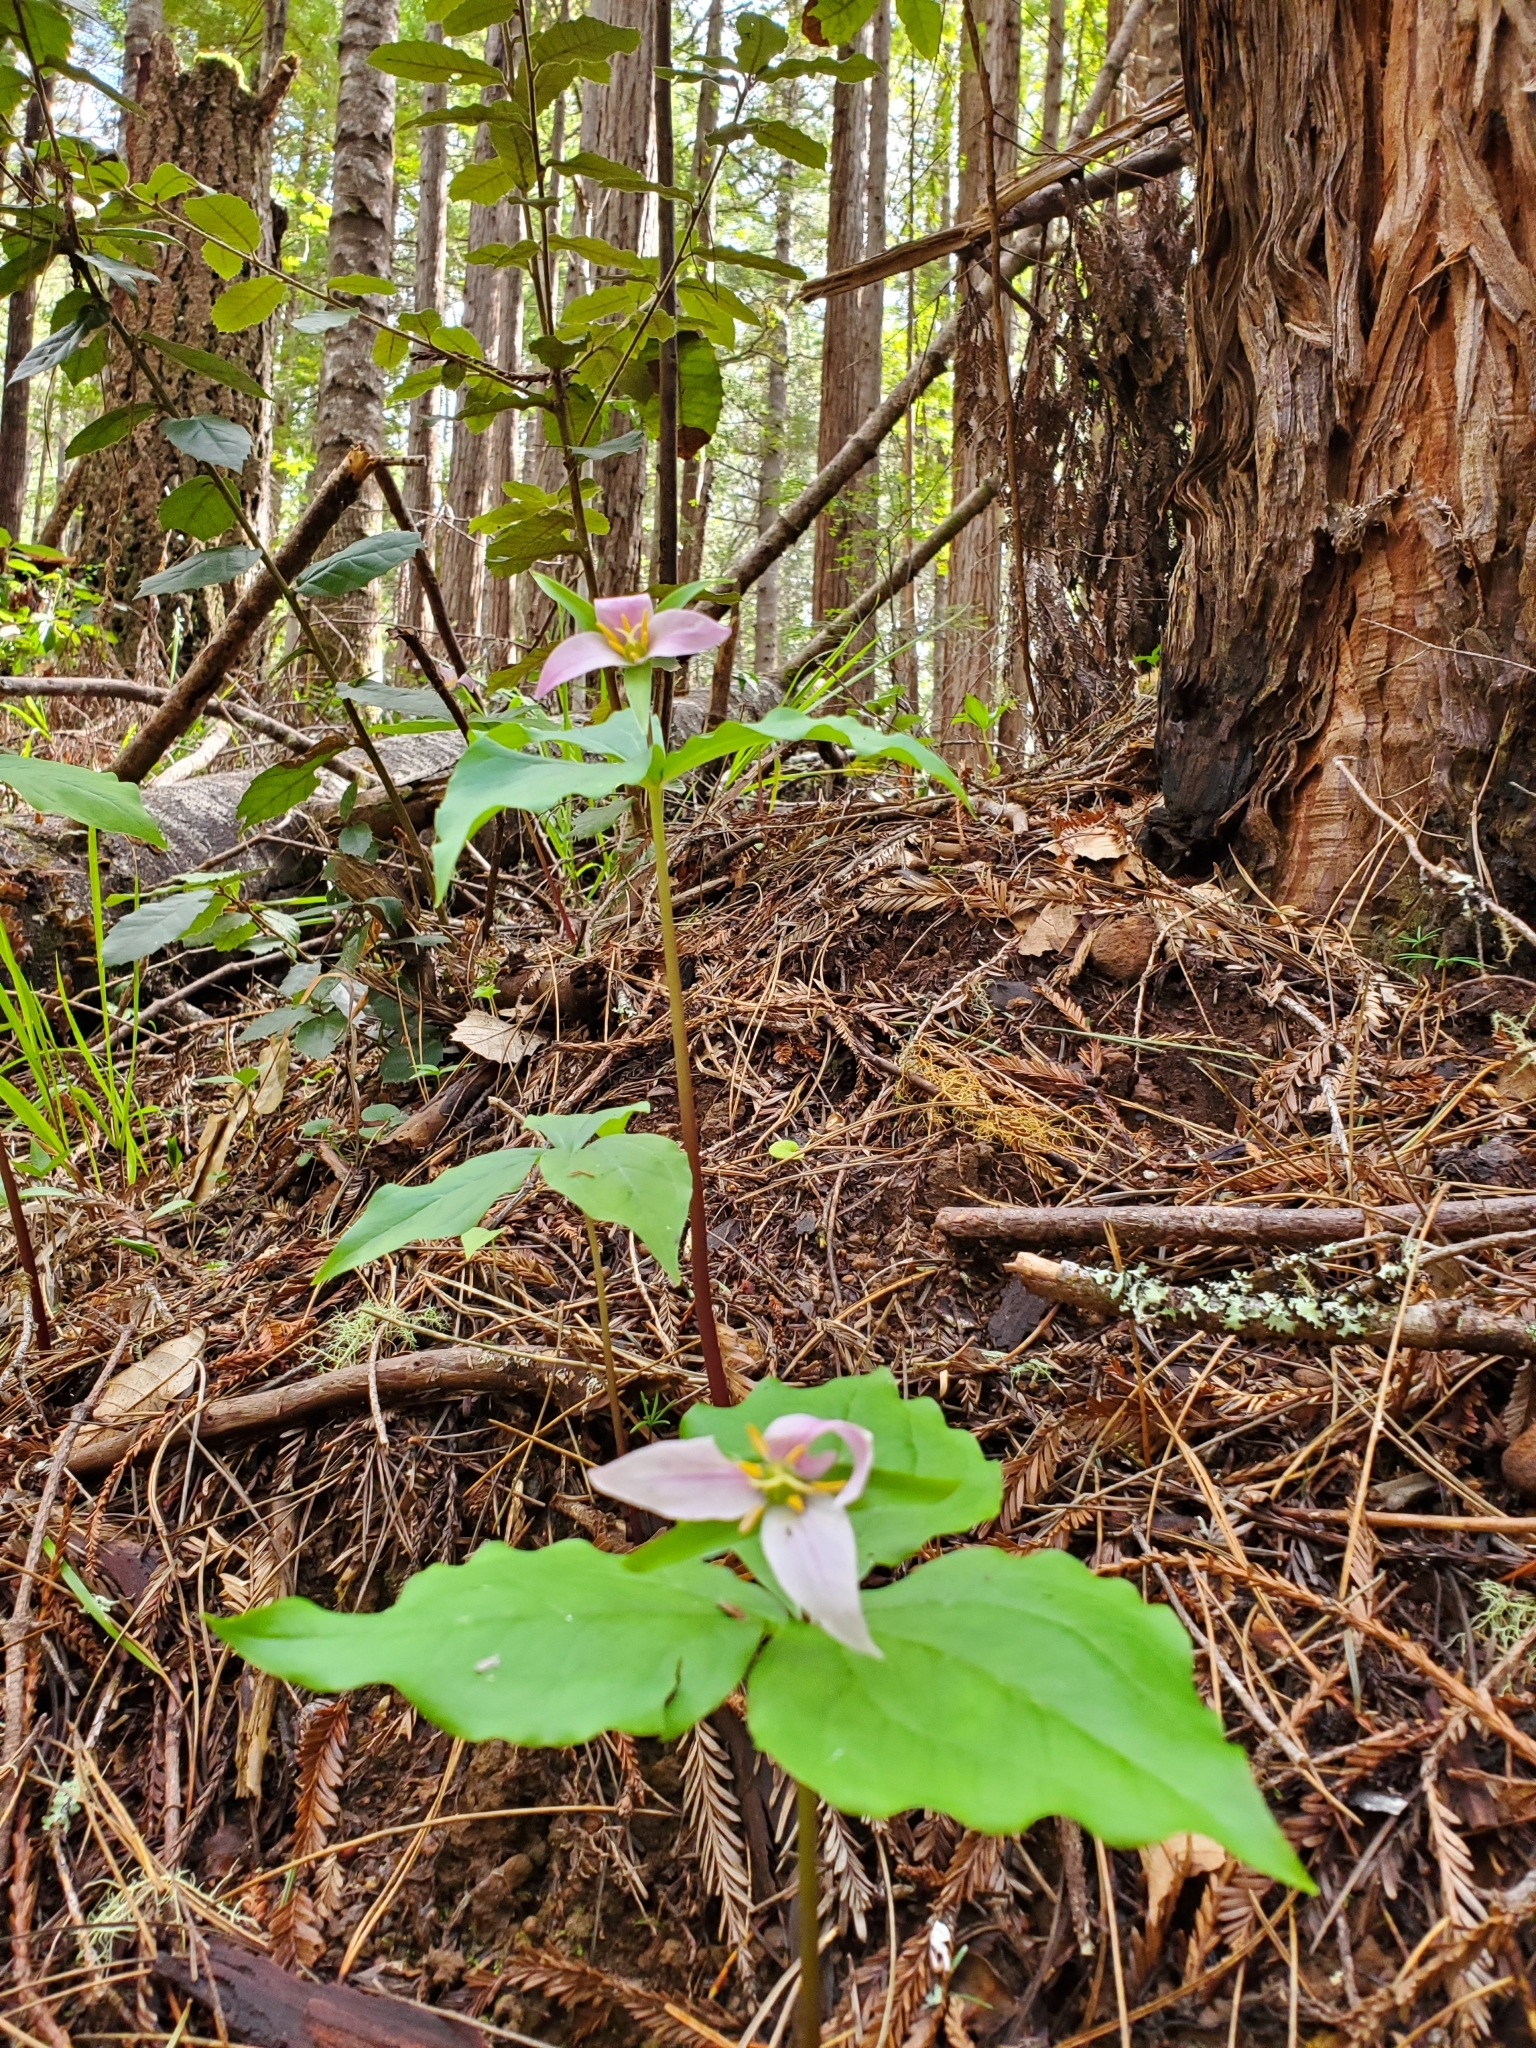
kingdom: Plantae
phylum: Tracheophyta
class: Liliopsida
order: Liliales
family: Melanthiaceae
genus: Trillium
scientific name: Trillium ovatum
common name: Pacific trillium
